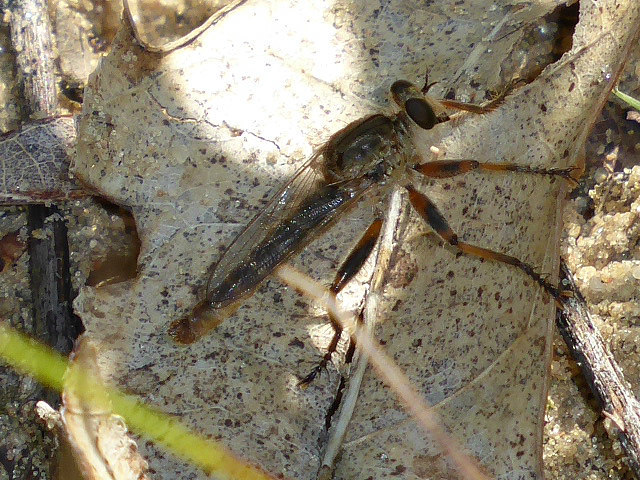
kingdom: Animalia
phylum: Arthropoda
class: Insecta
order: Diptera
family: Asilidae
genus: Proctacanthella
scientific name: Proctacanthella cacopiloga
